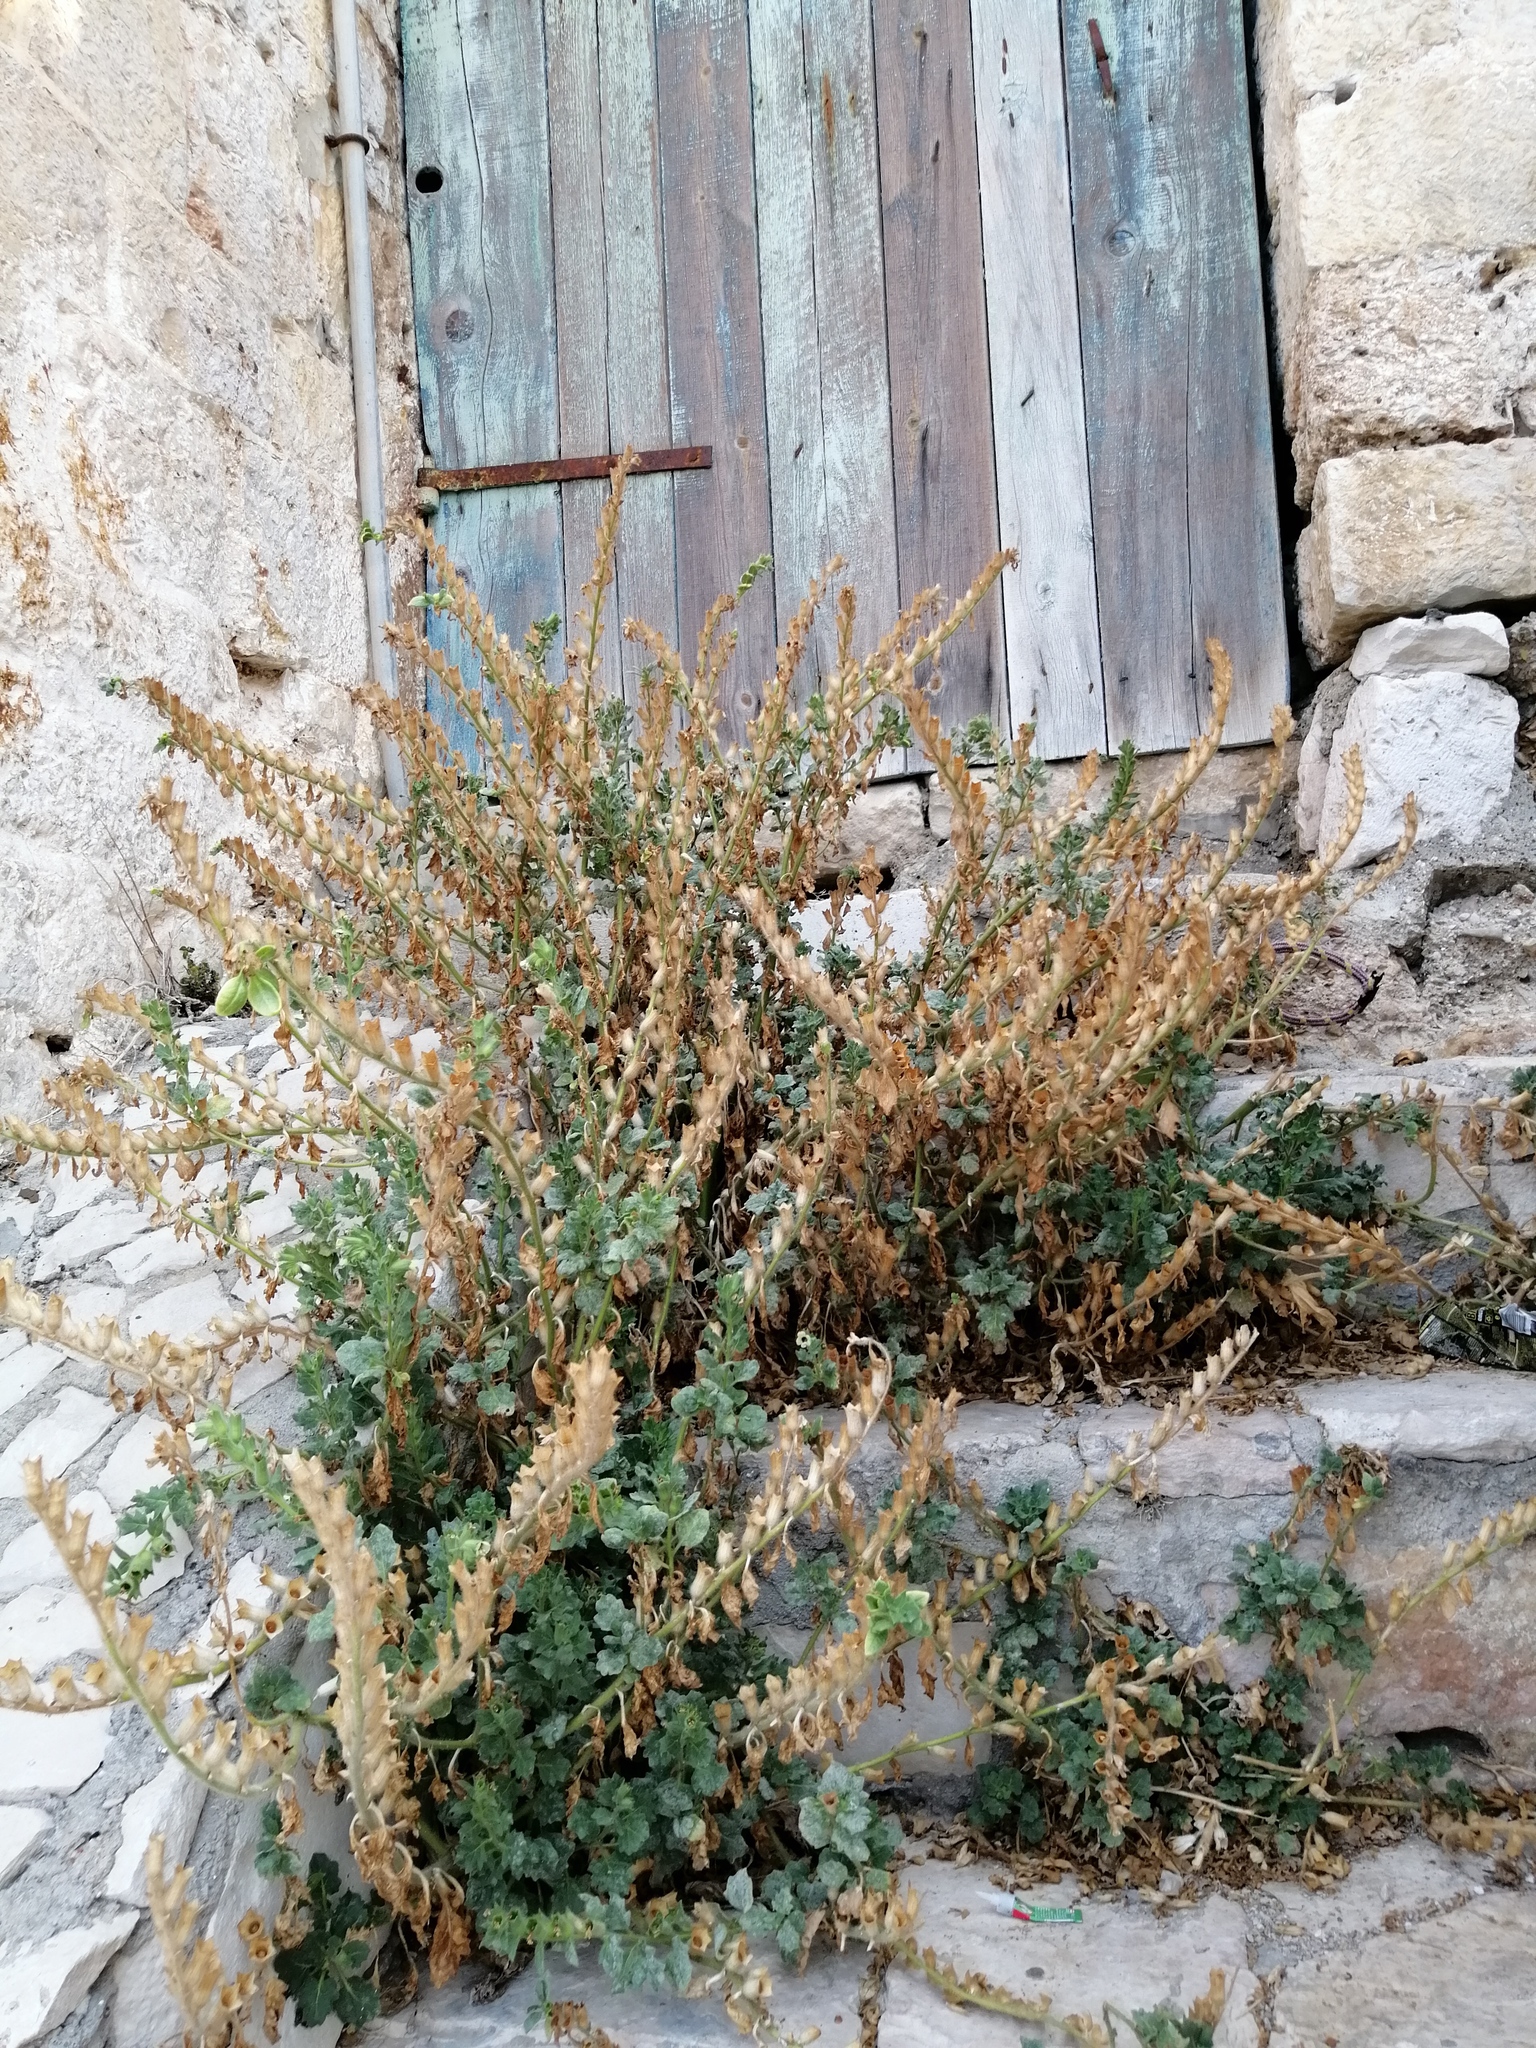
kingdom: Plantae
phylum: Tracheophyta
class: Magnoliopsida
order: Solanales
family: Solanaceae
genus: Hyoscyamus
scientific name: Hyoscyamus albus
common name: White henbane
